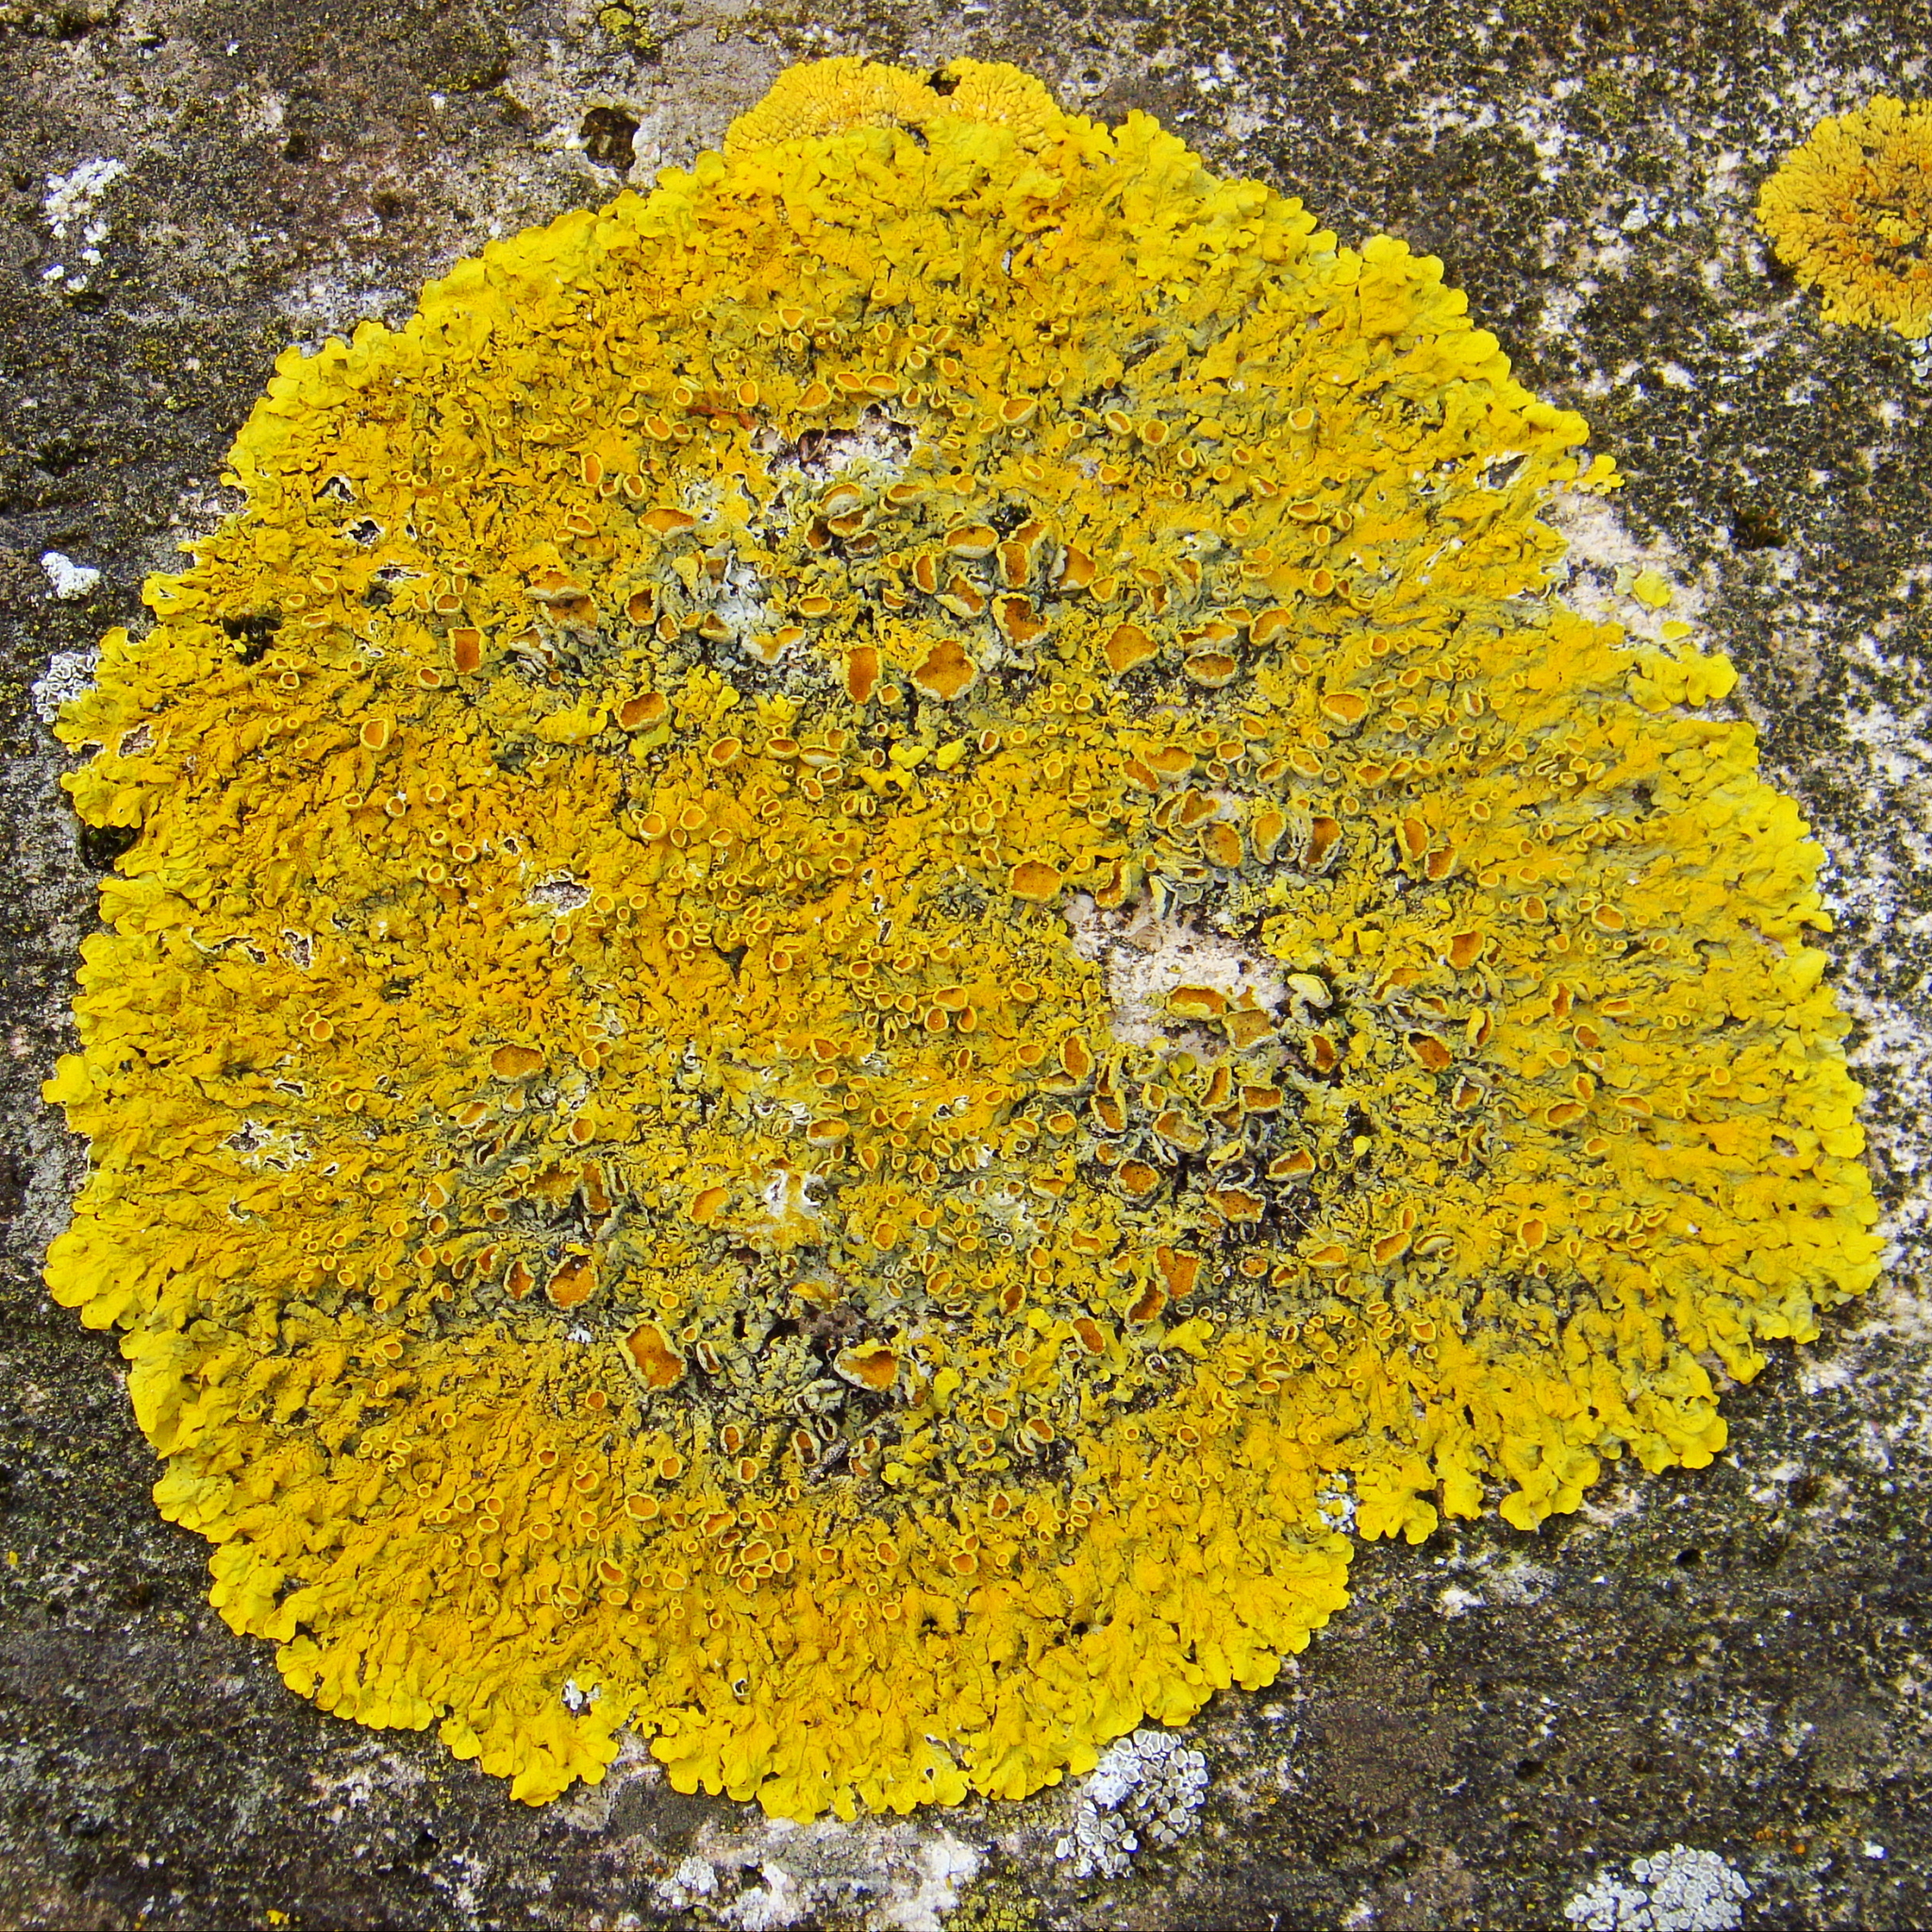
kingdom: Fungi
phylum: Ascomycota
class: Lecanoromycetes
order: Teloschistales
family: Teloschistaceae
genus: Xanthoria
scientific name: Xanthoria parietina
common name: Common orange lichen
